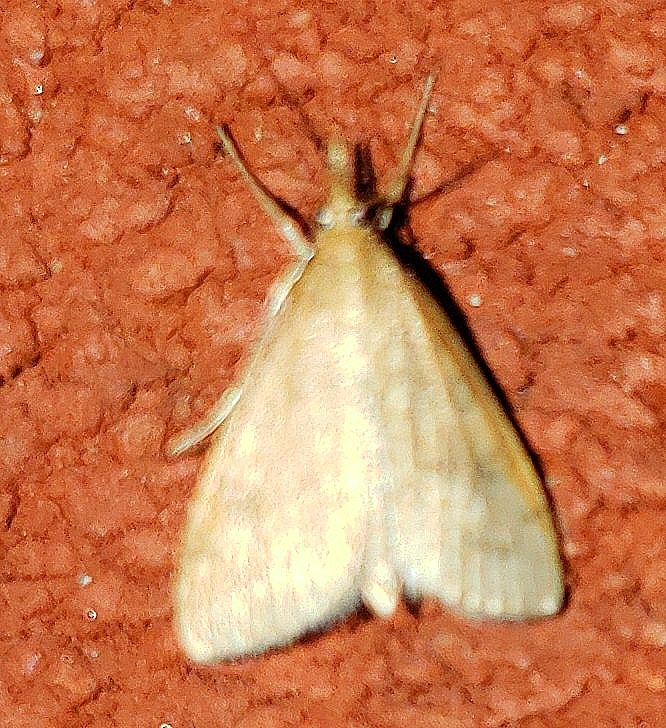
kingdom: Animalia
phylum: Arthropoda
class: Insecta
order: Lepidoptera
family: Crambidae
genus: Udea
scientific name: Udea rubigalis
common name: Celery leaftier moth
